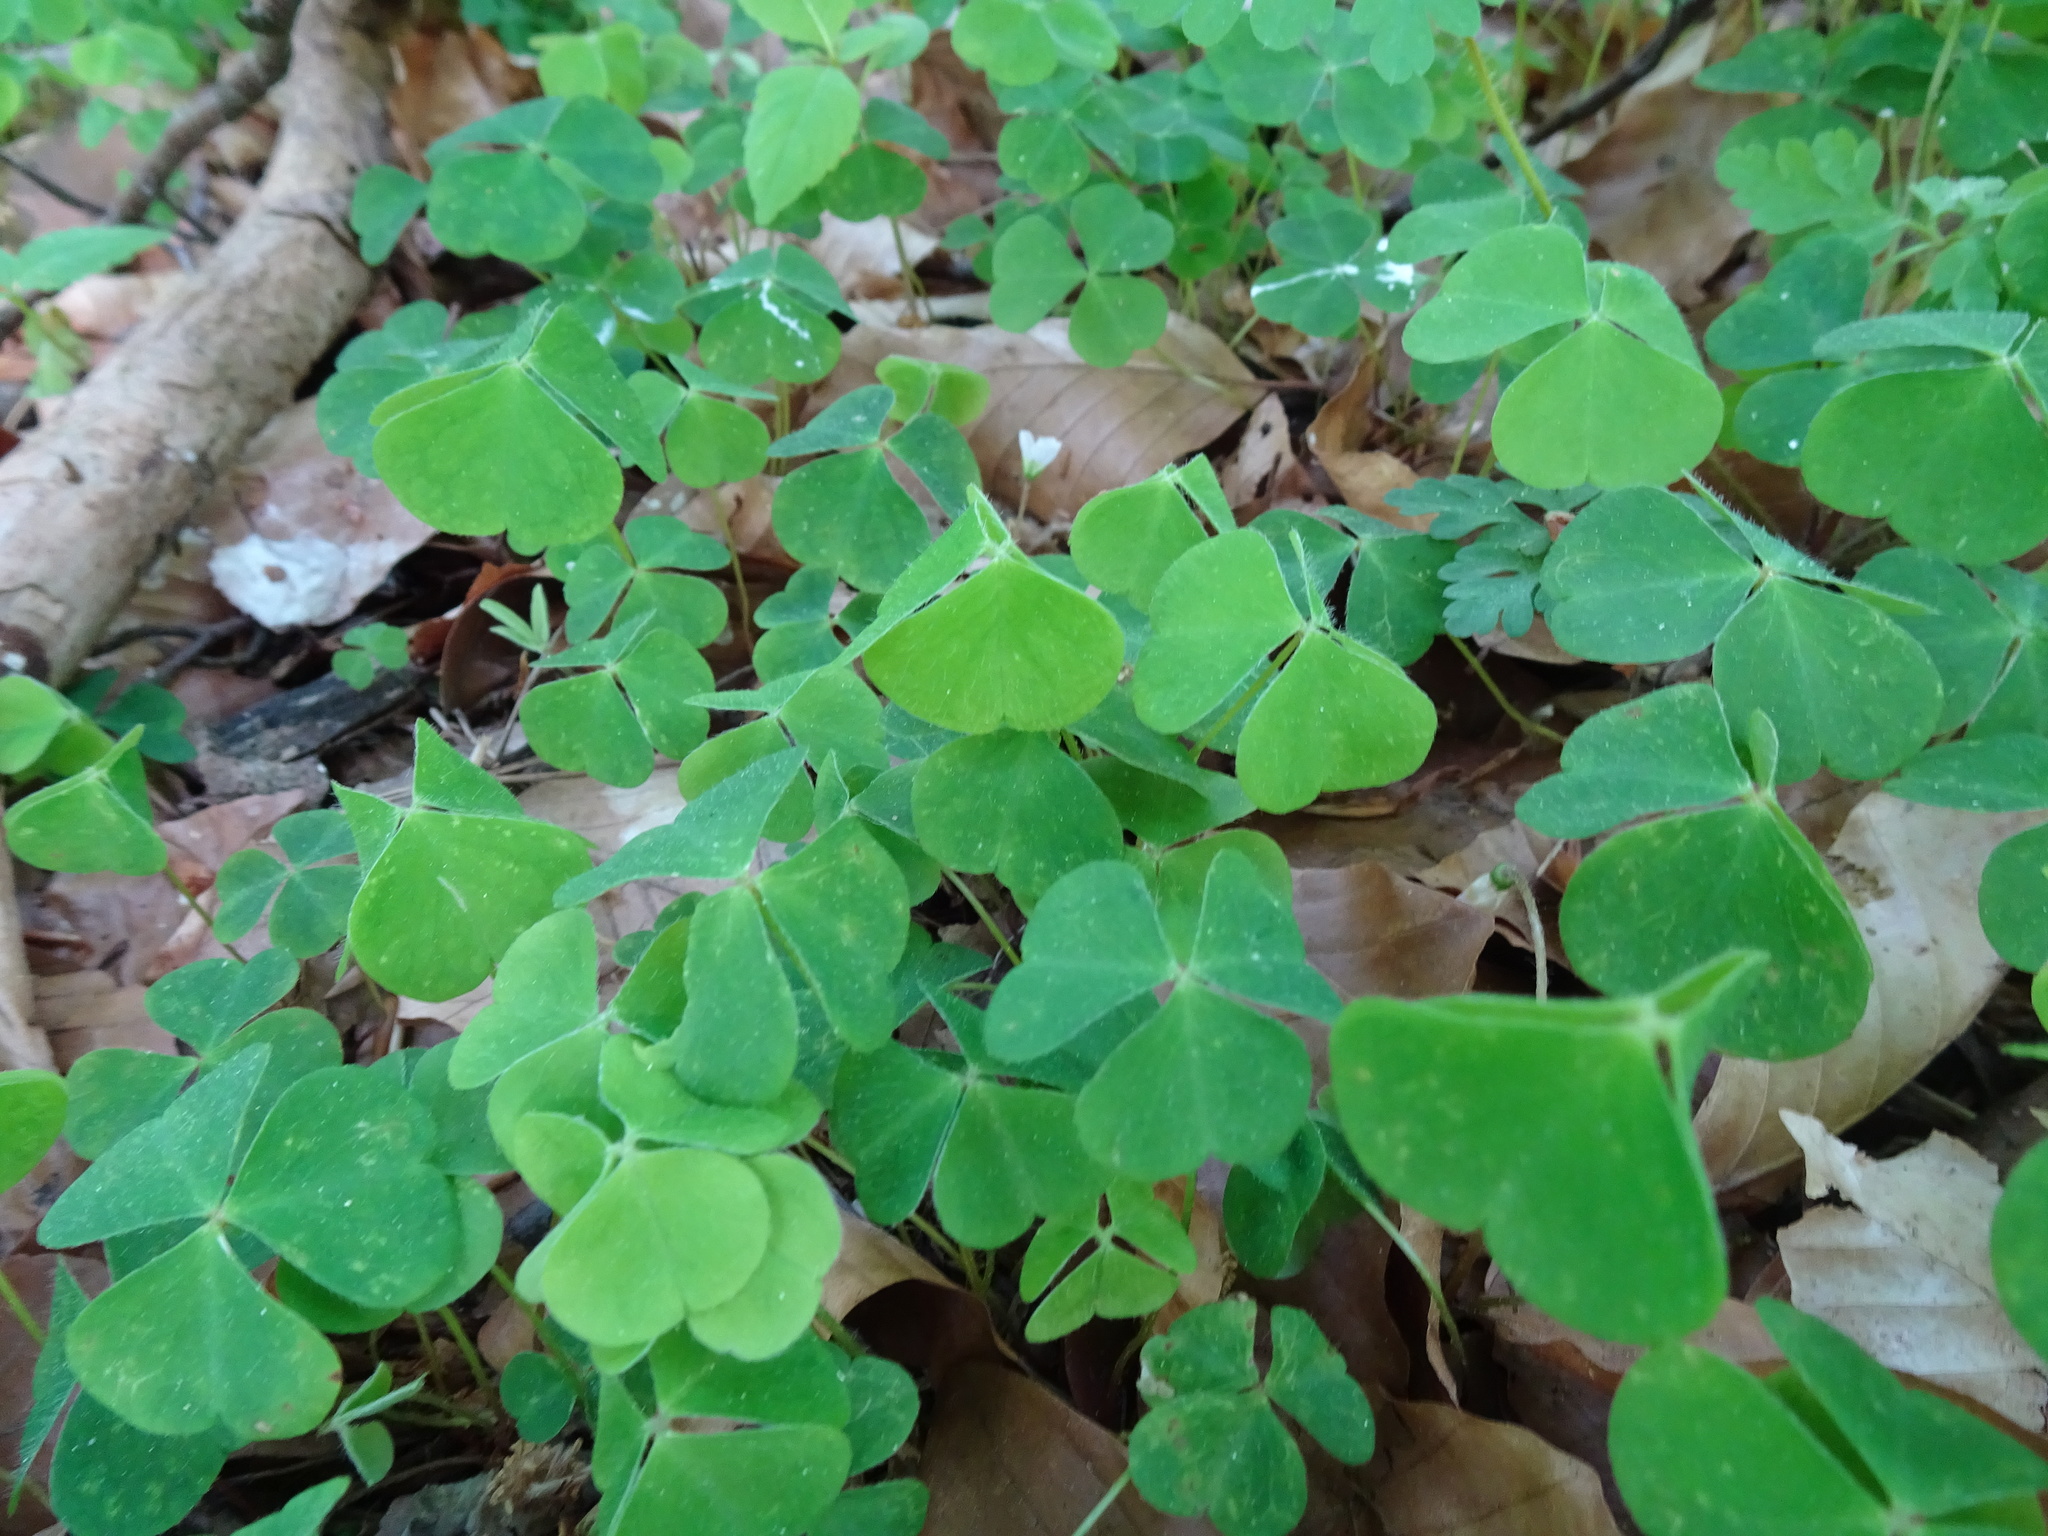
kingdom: Plantae
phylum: Tracheophyta
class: Magnoliopsida
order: Oxalidales
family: Oxalidaceae
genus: Oxalis
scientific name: Oxalis acetosella
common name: Wood-sorrel
